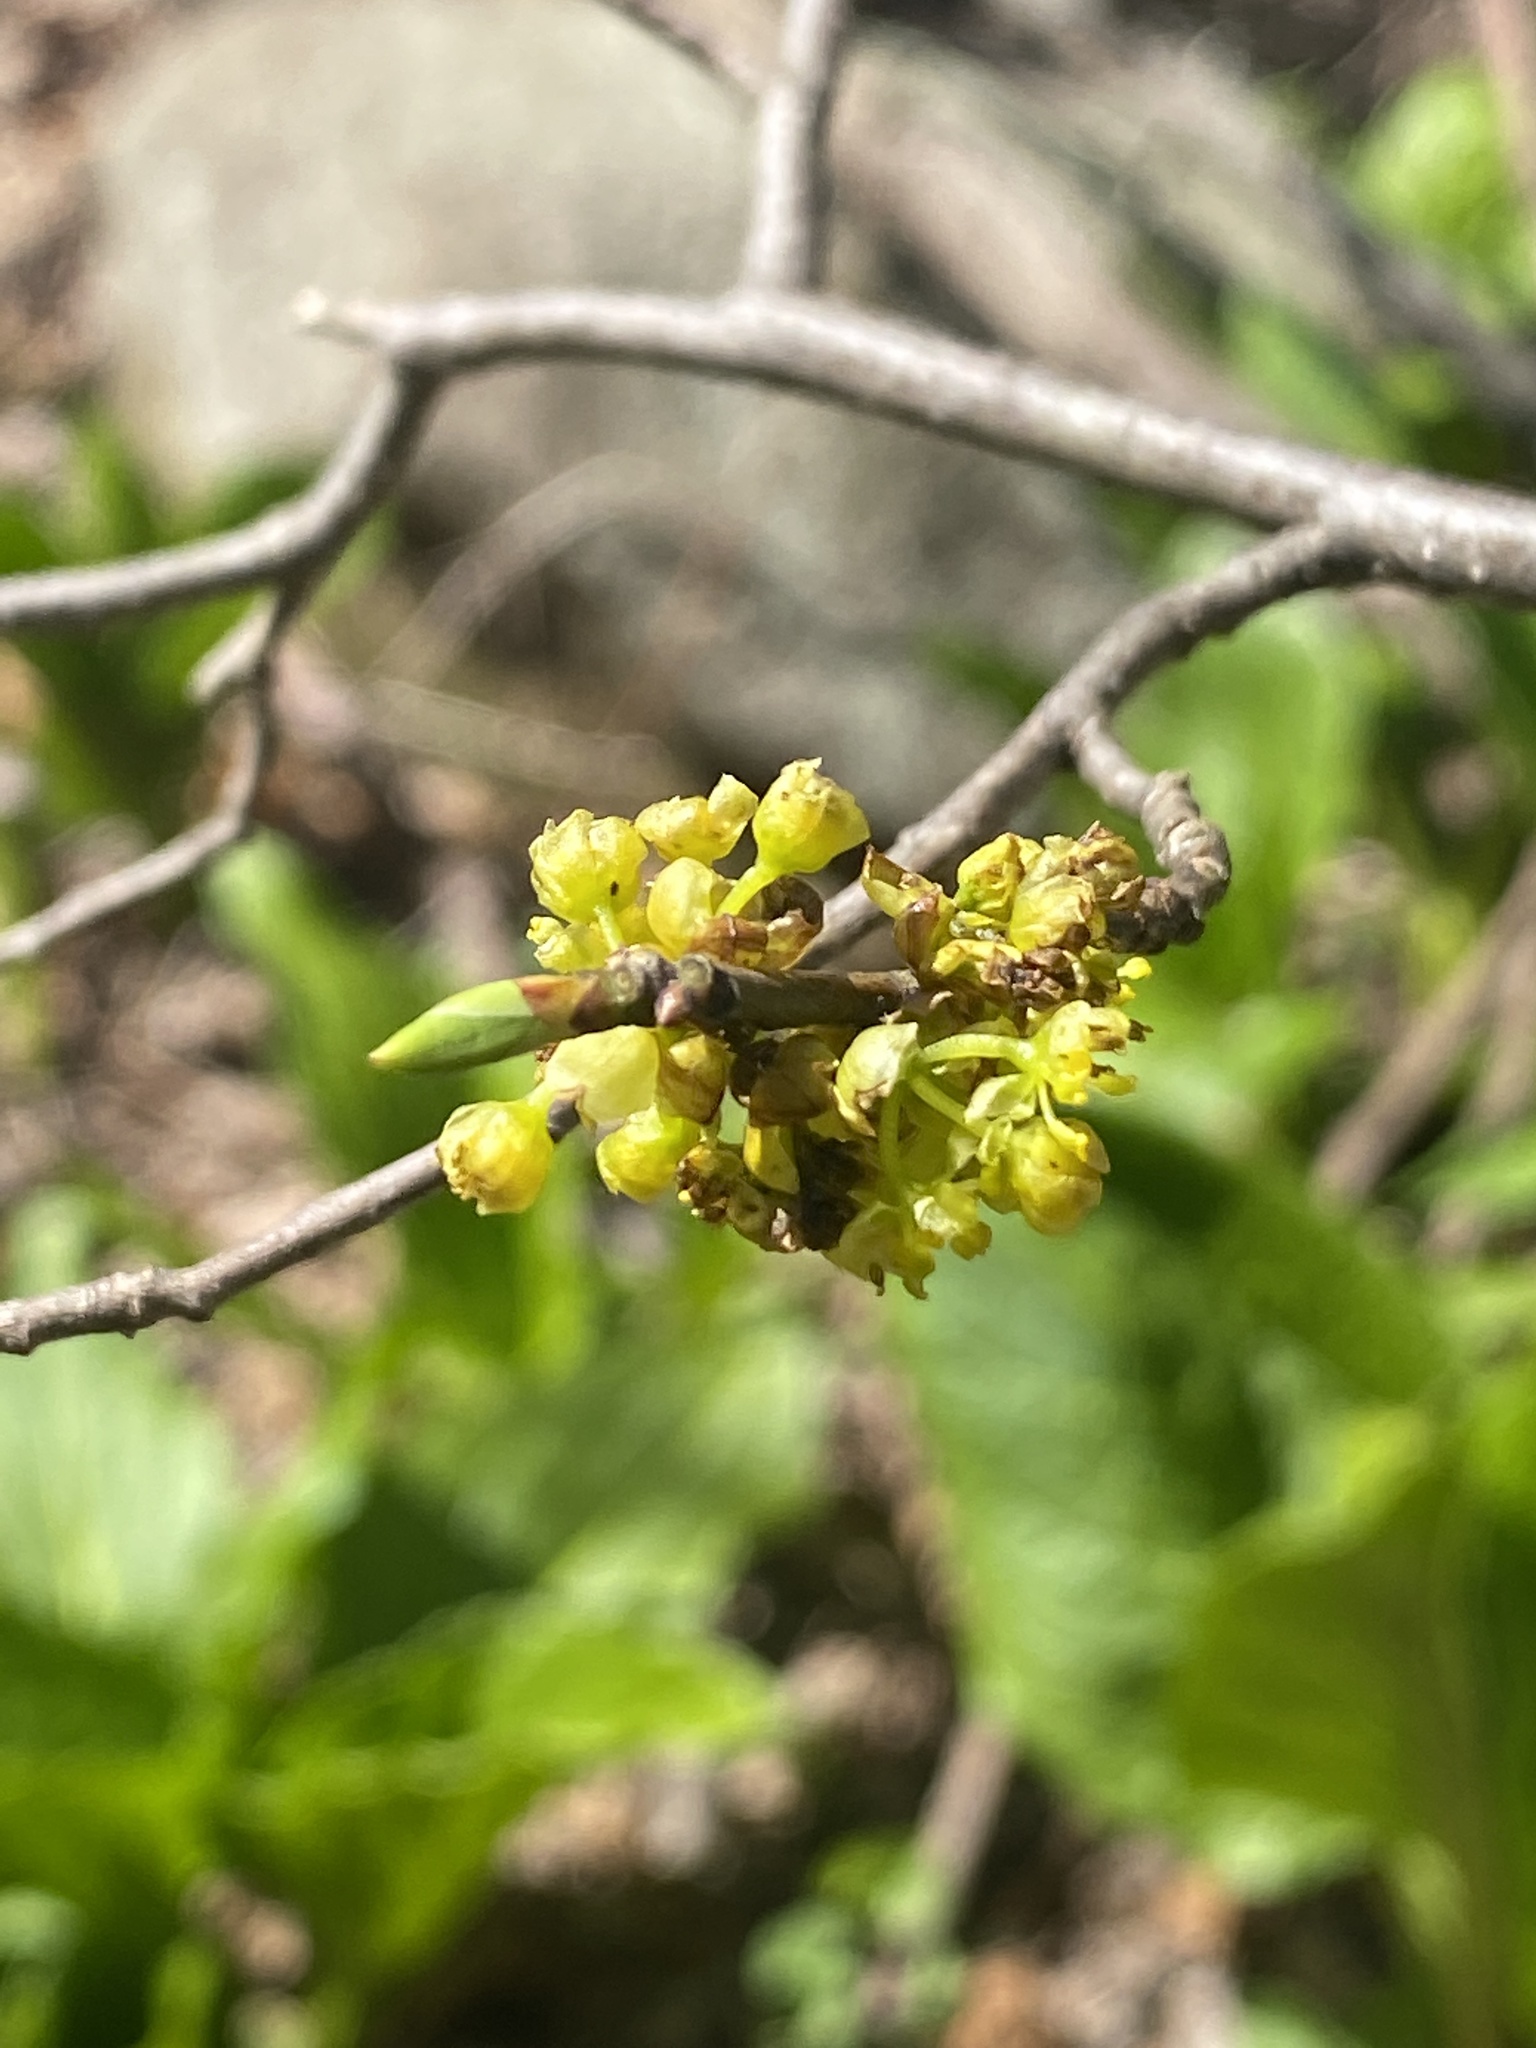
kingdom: Plantae
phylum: Tracheophyta
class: Magnoliopsida
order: Laurales
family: Lauraceae
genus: Lindera
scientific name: Lindera benzoin
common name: Spicebush
